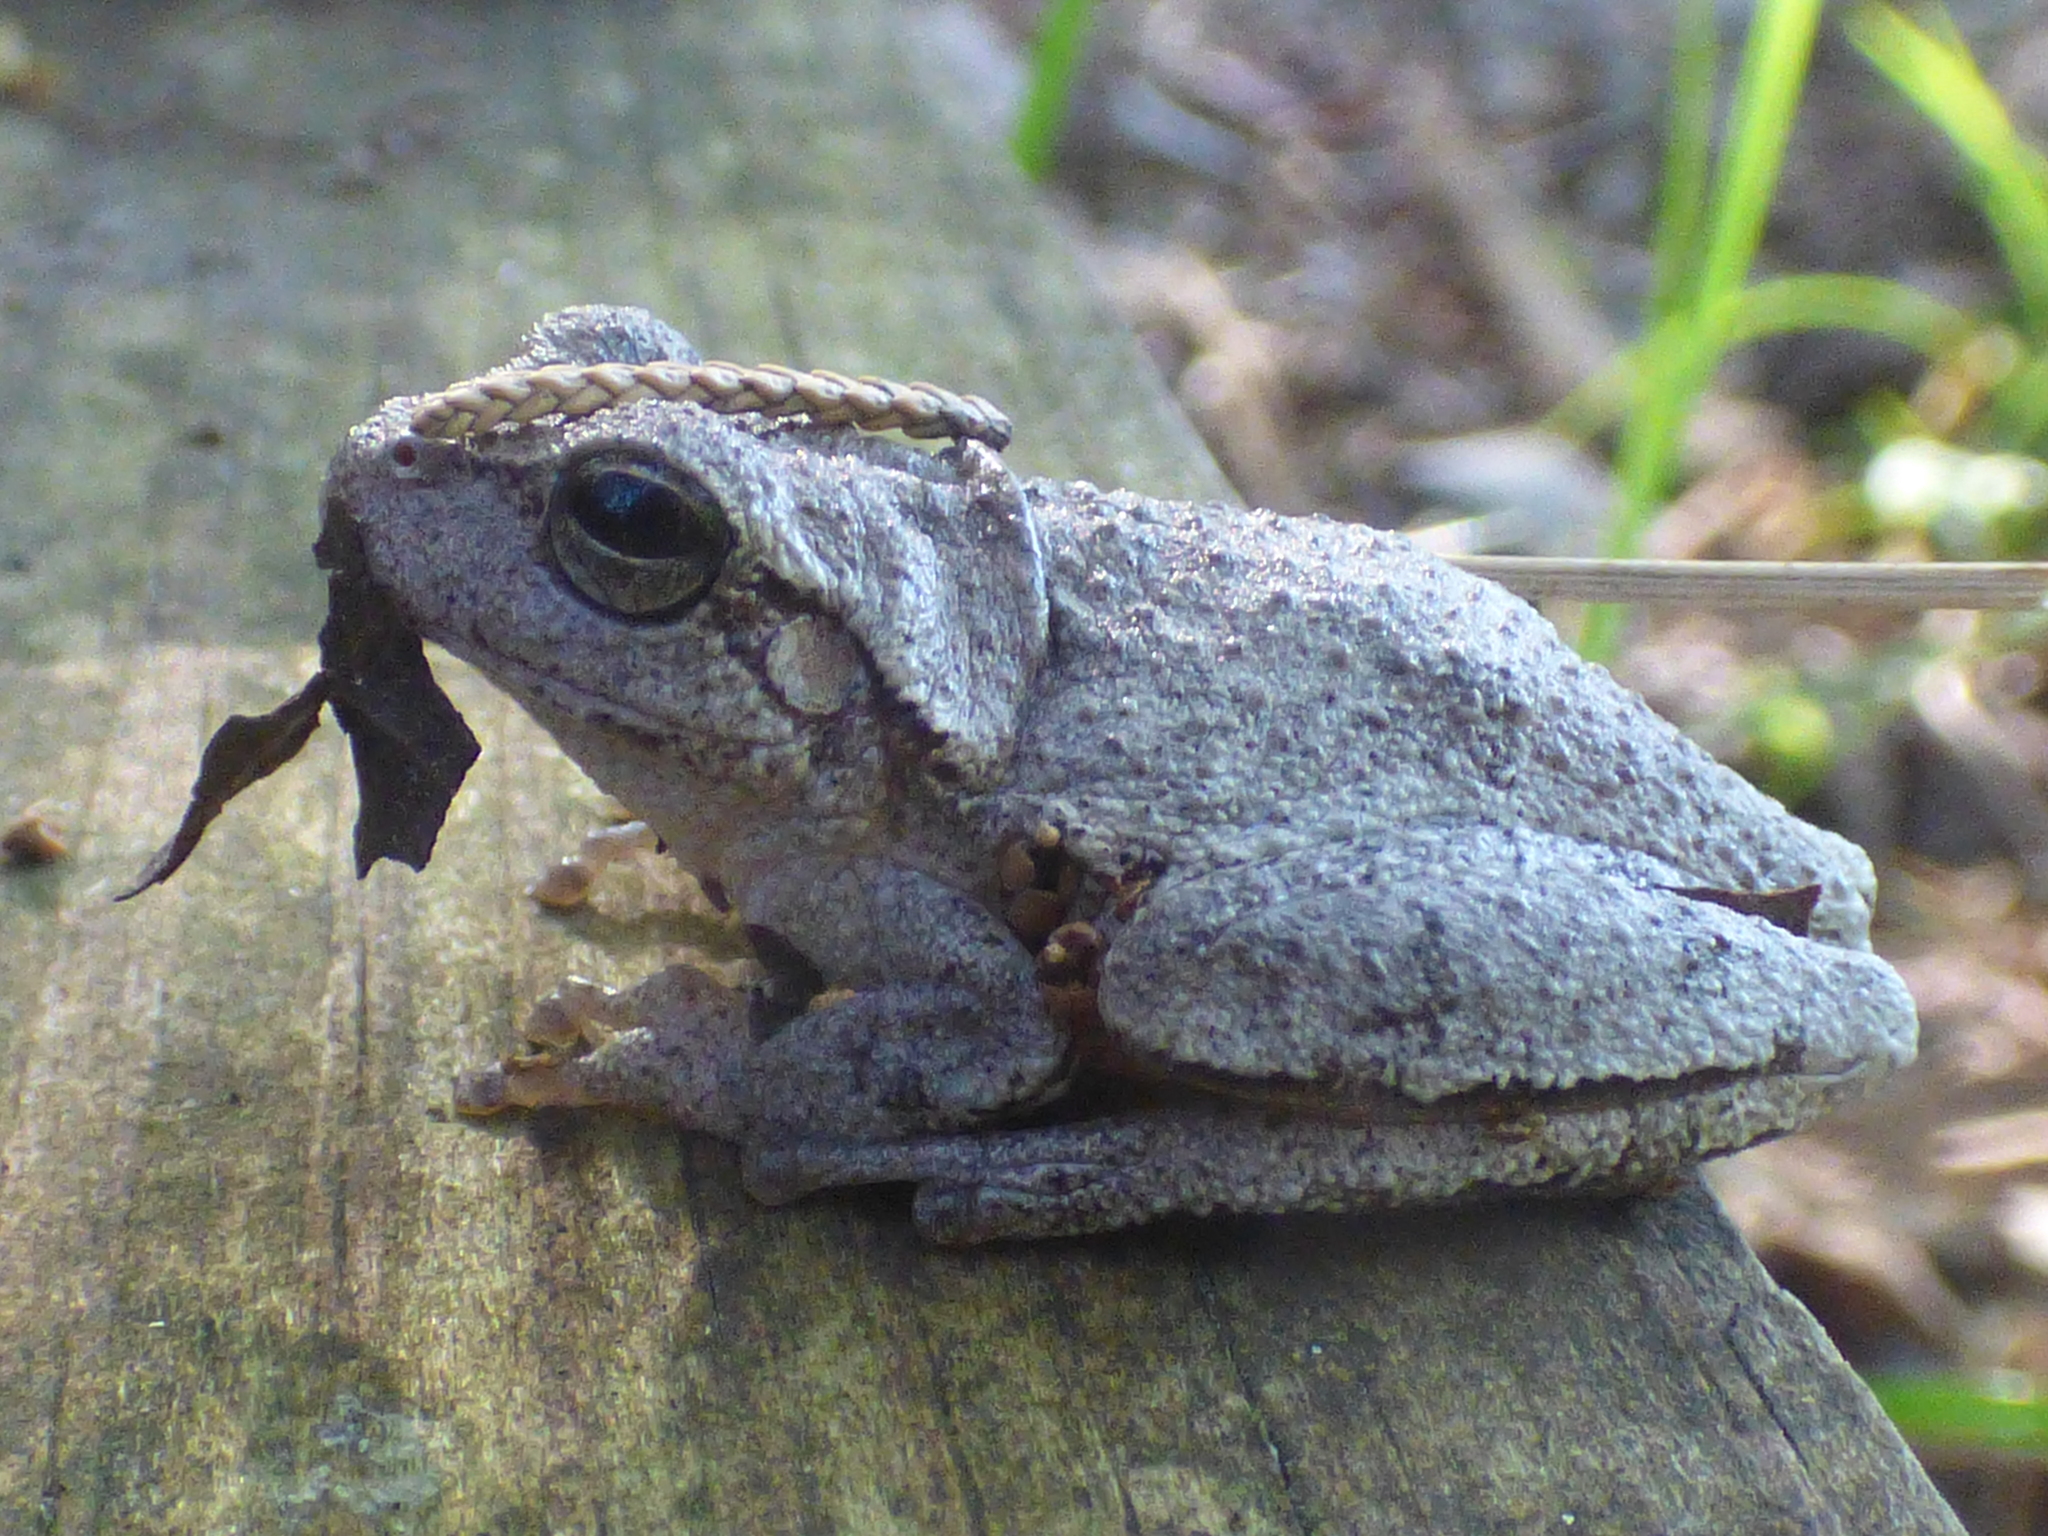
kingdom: Animalia
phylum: Chordata
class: Amphibia
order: Anura
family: Hylidae
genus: Hyla
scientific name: Hyla femoralis
